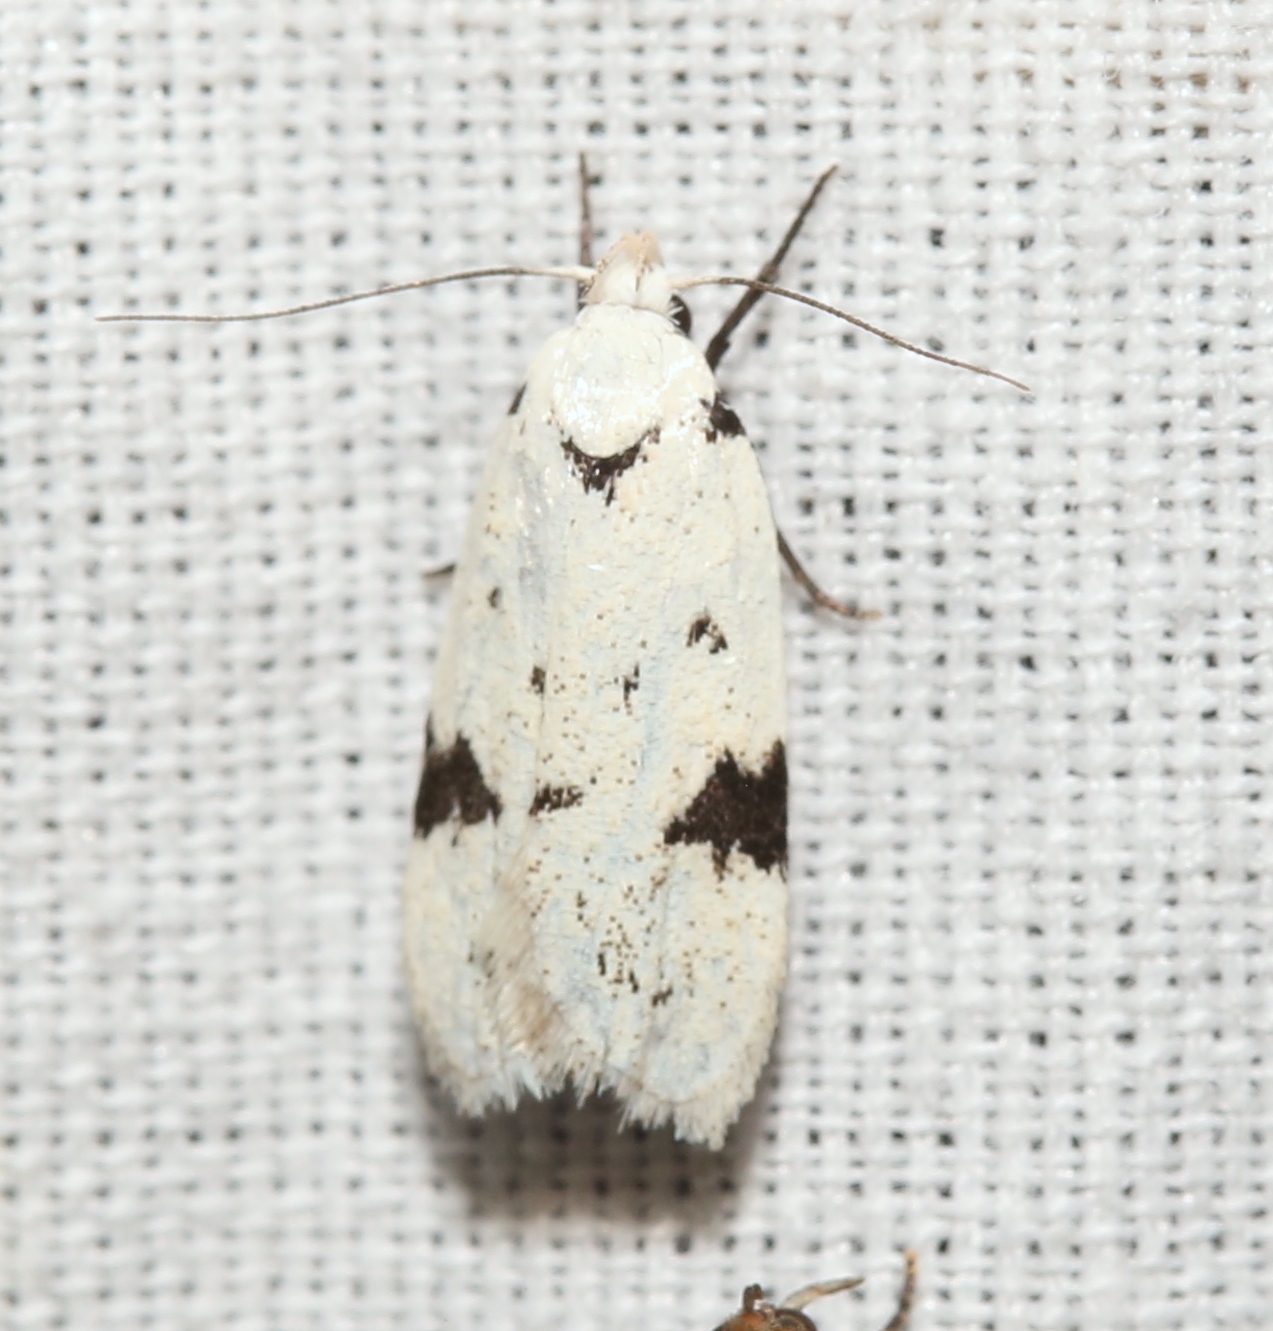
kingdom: Animalia
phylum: Arthropoda
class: Insecta
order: Lepidoptera
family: Oecophoridae
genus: Inga
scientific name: Inga sparsiciliella
